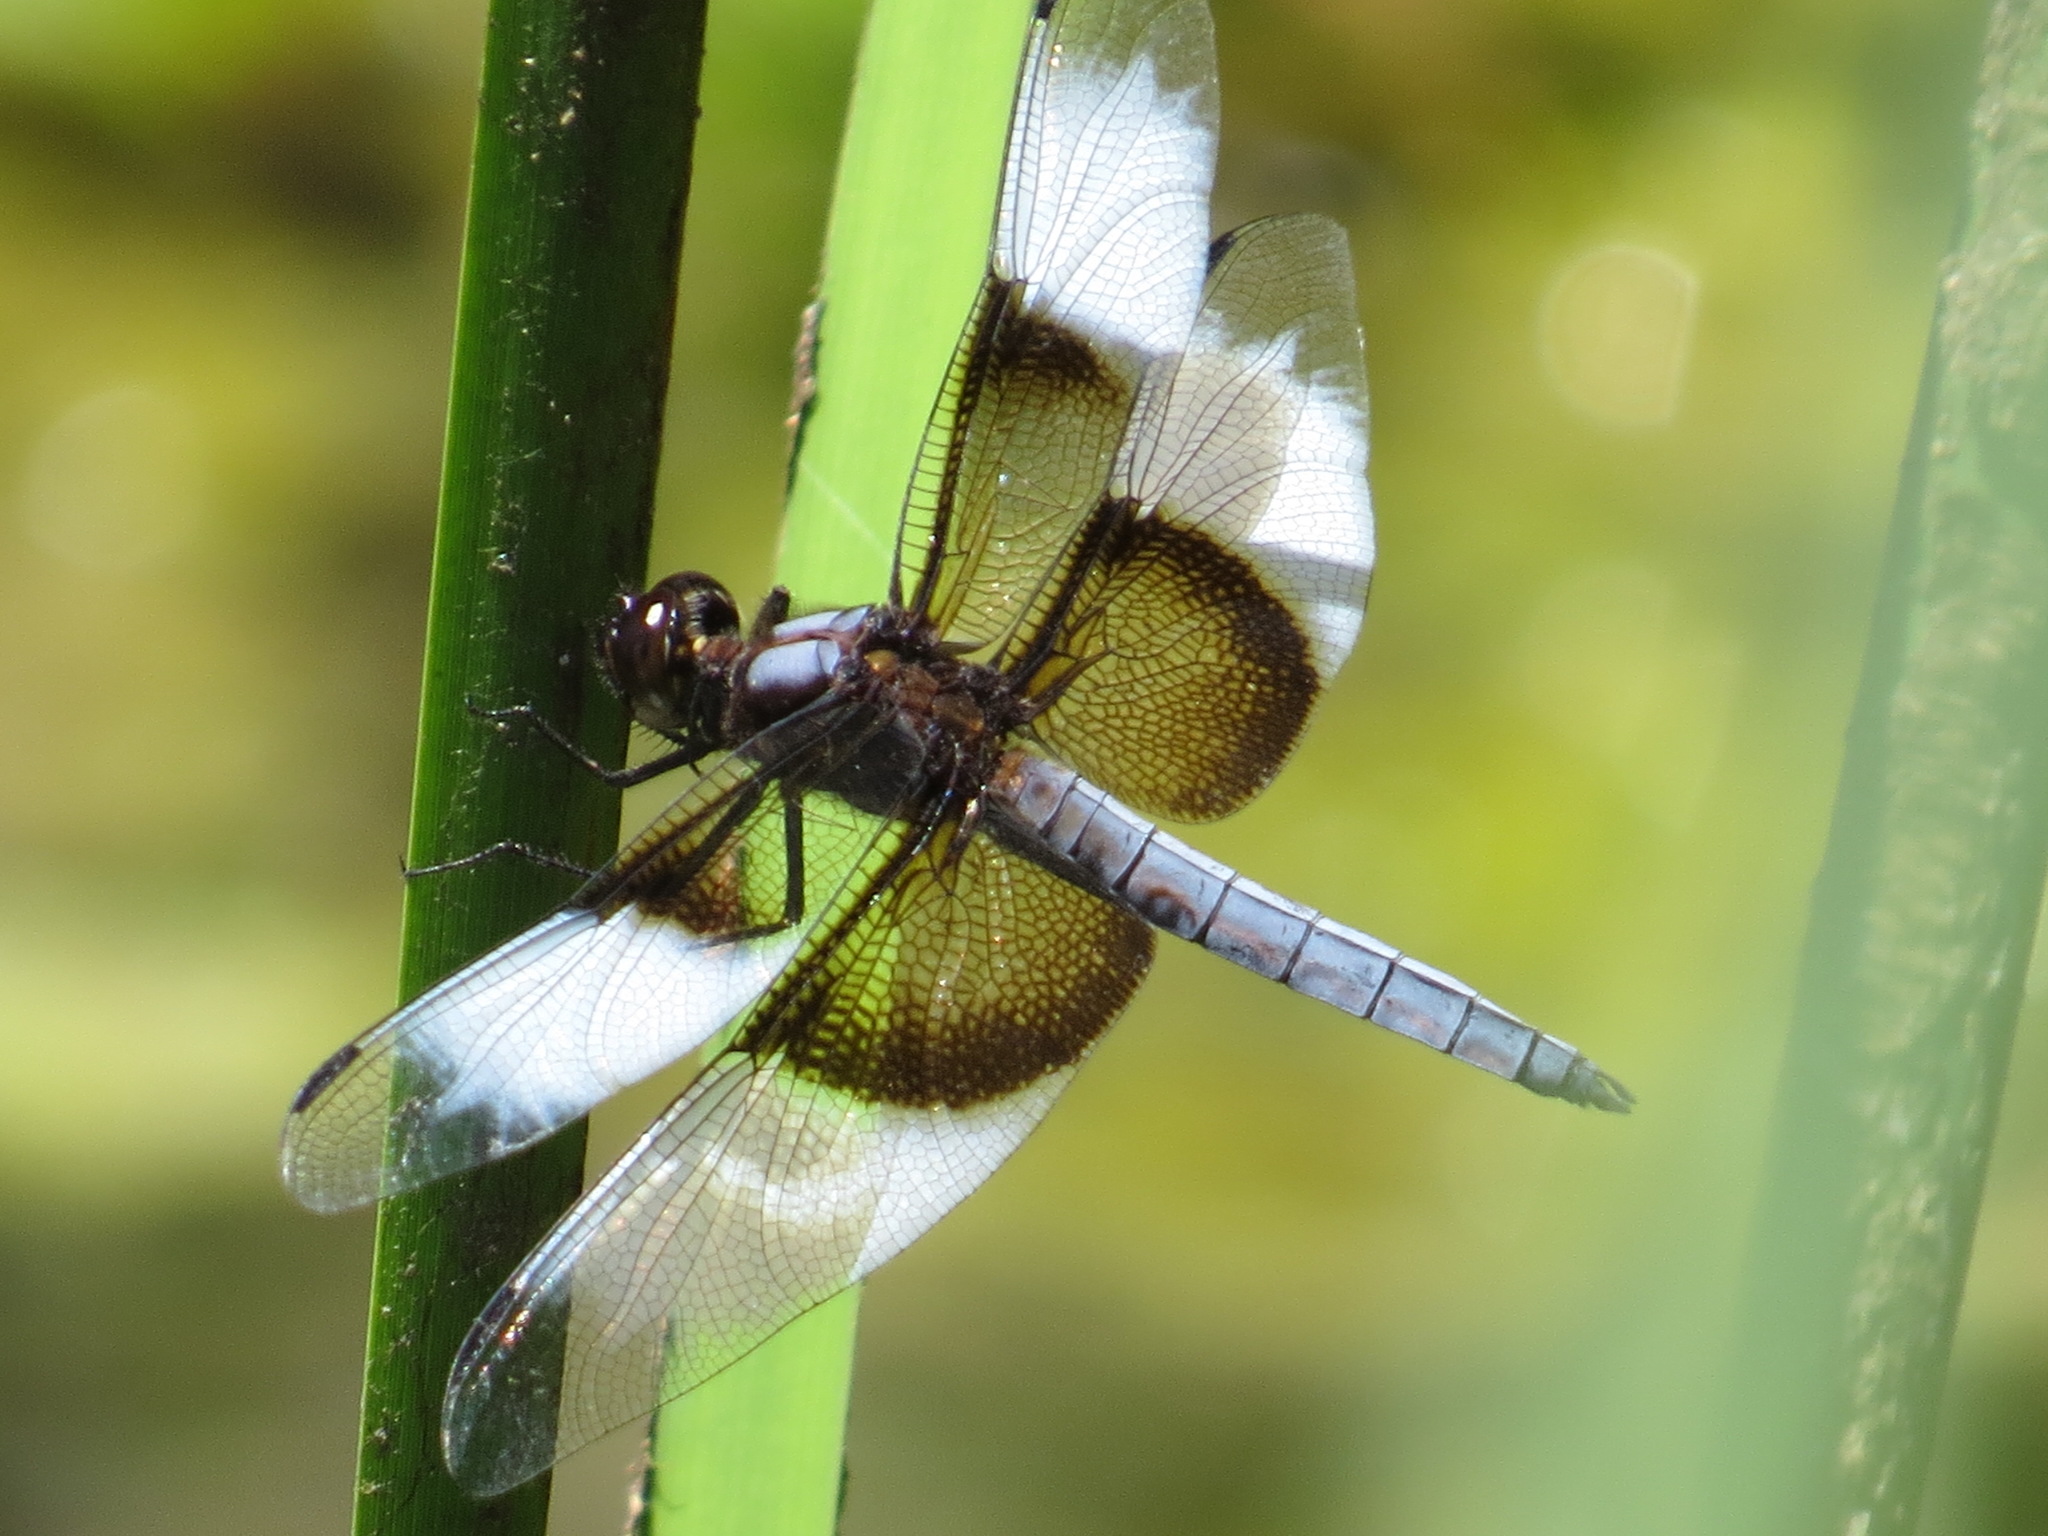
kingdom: Animalia
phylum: Arthropoda
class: Insecta
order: Odonata
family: Libellulidae
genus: Libellula
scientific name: Libellula luctuosa
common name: Widow skimmer
